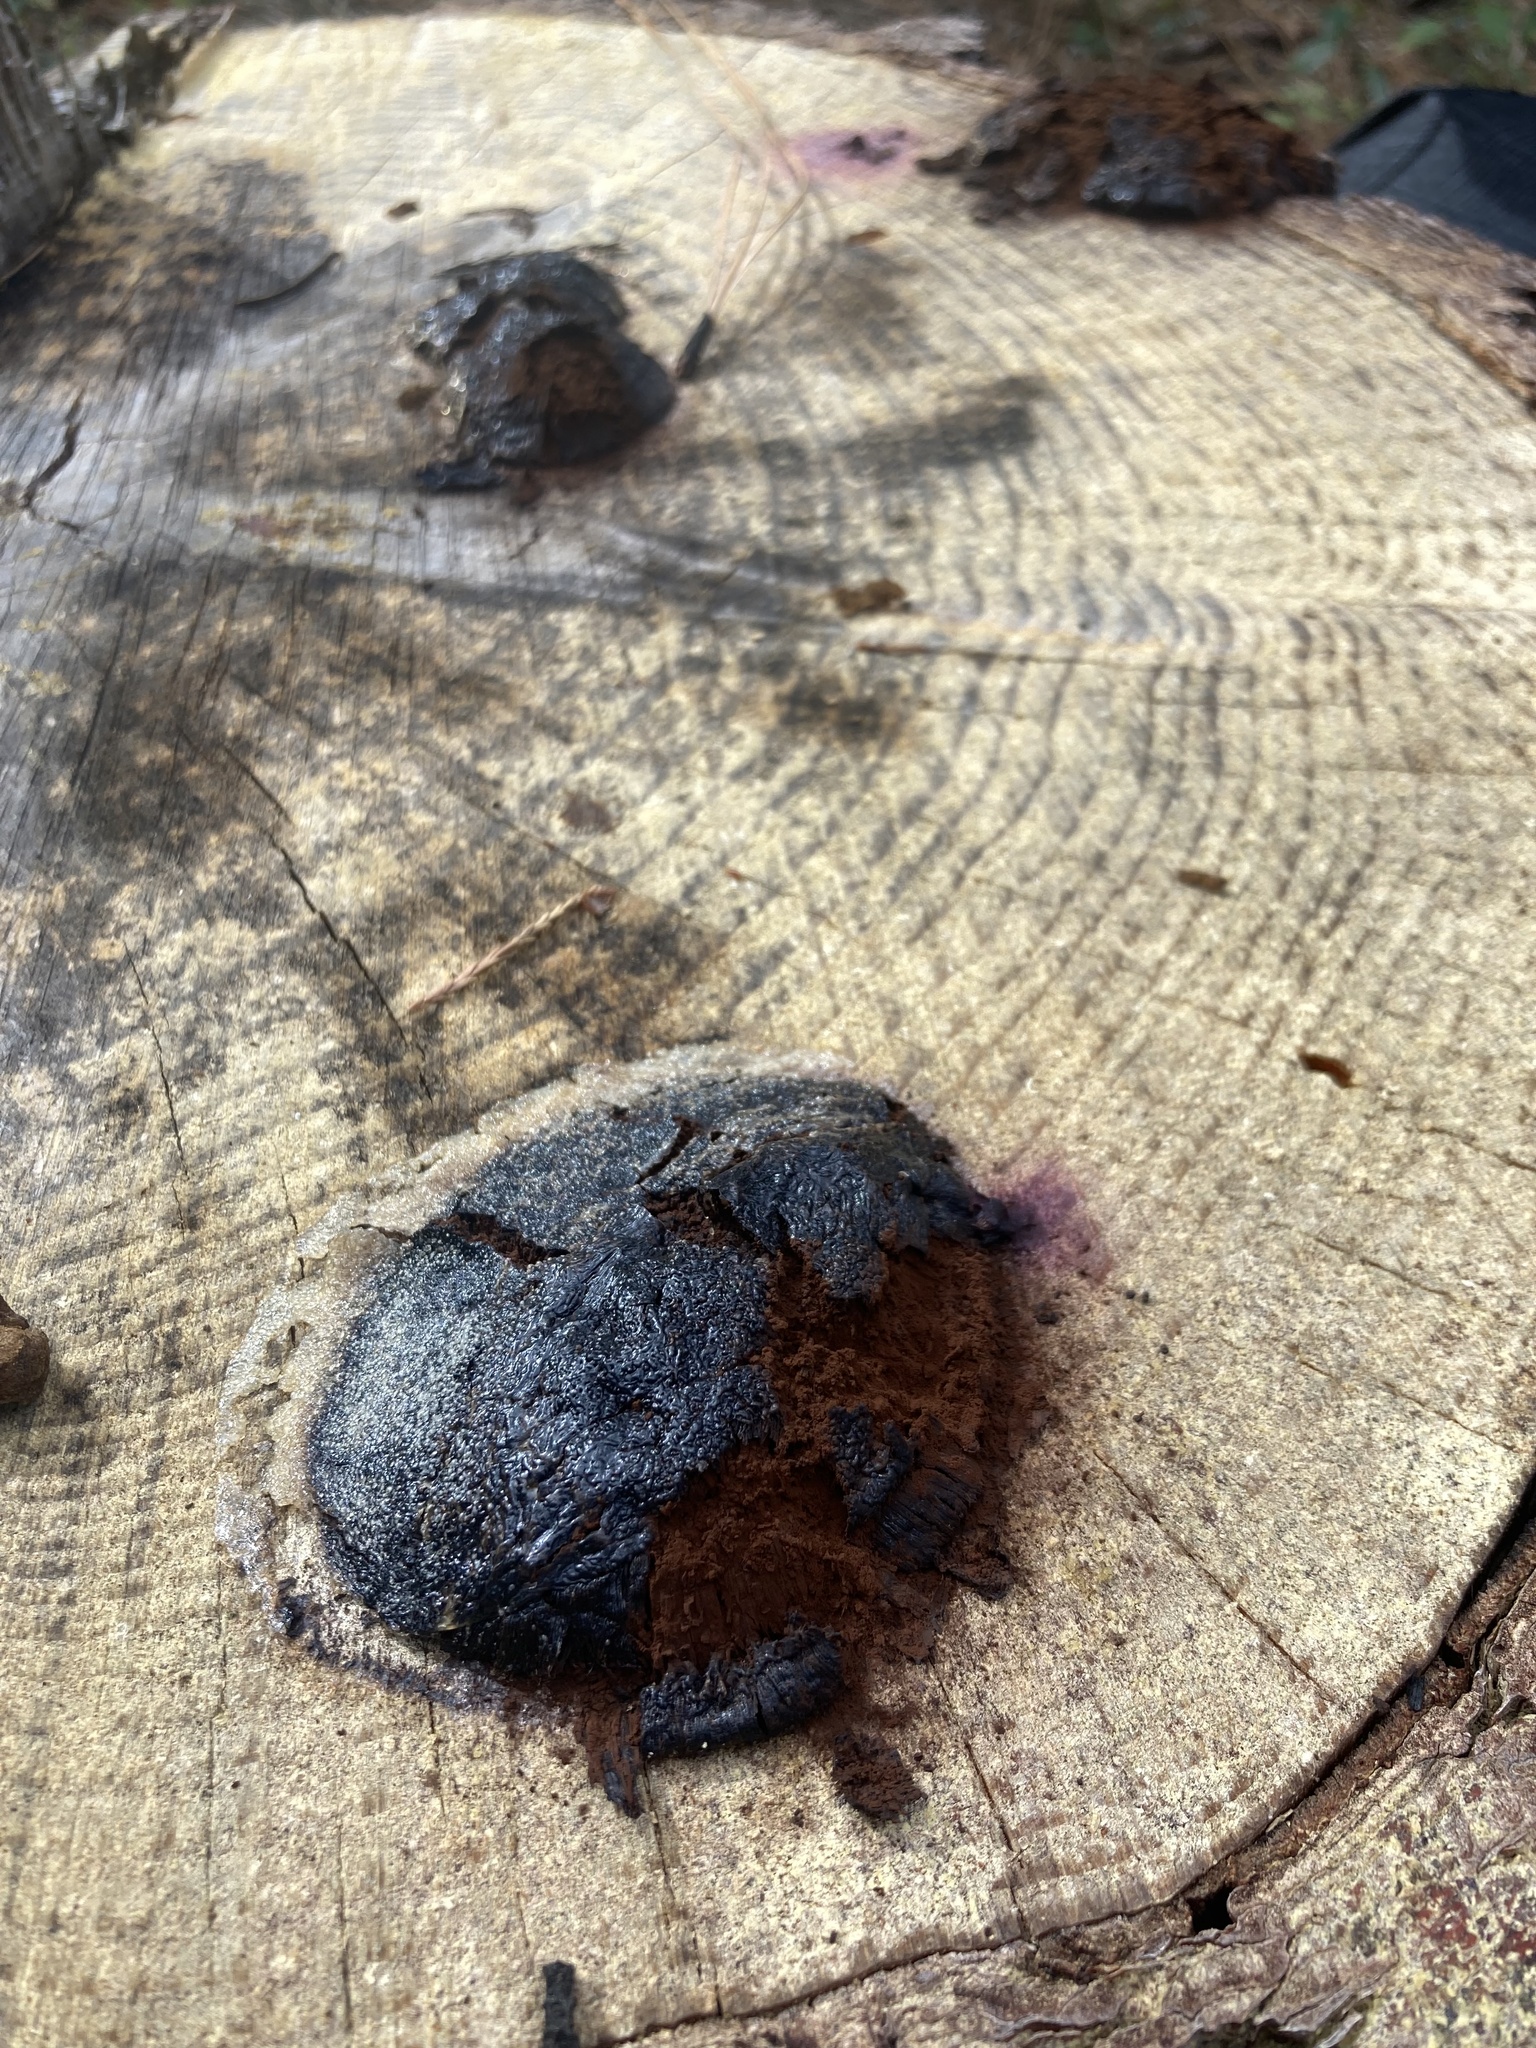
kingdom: Protozoa
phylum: Mycetozoa
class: Myxomycetes
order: Cribrariales
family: Tubiferaceae
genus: Reticularia
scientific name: Reticularia lycoperdon
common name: False puffball
